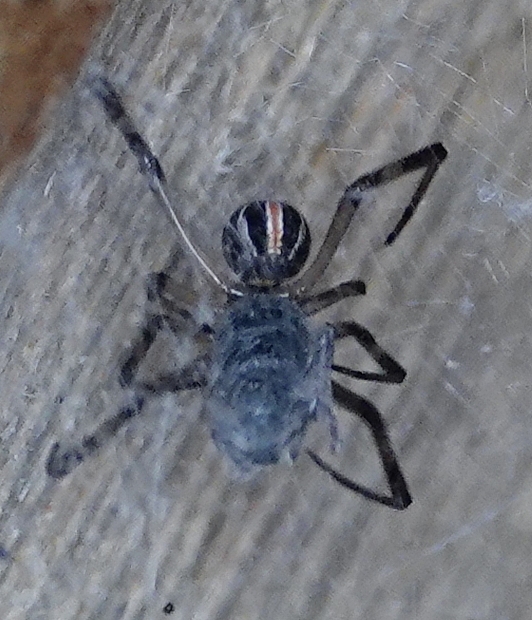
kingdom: Animalia
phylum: Arthropoda
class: Arachnida
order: Araneae
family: Theridiidae
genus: Latrodectus
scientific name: Latrodectus hesperus
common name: Western black widow
